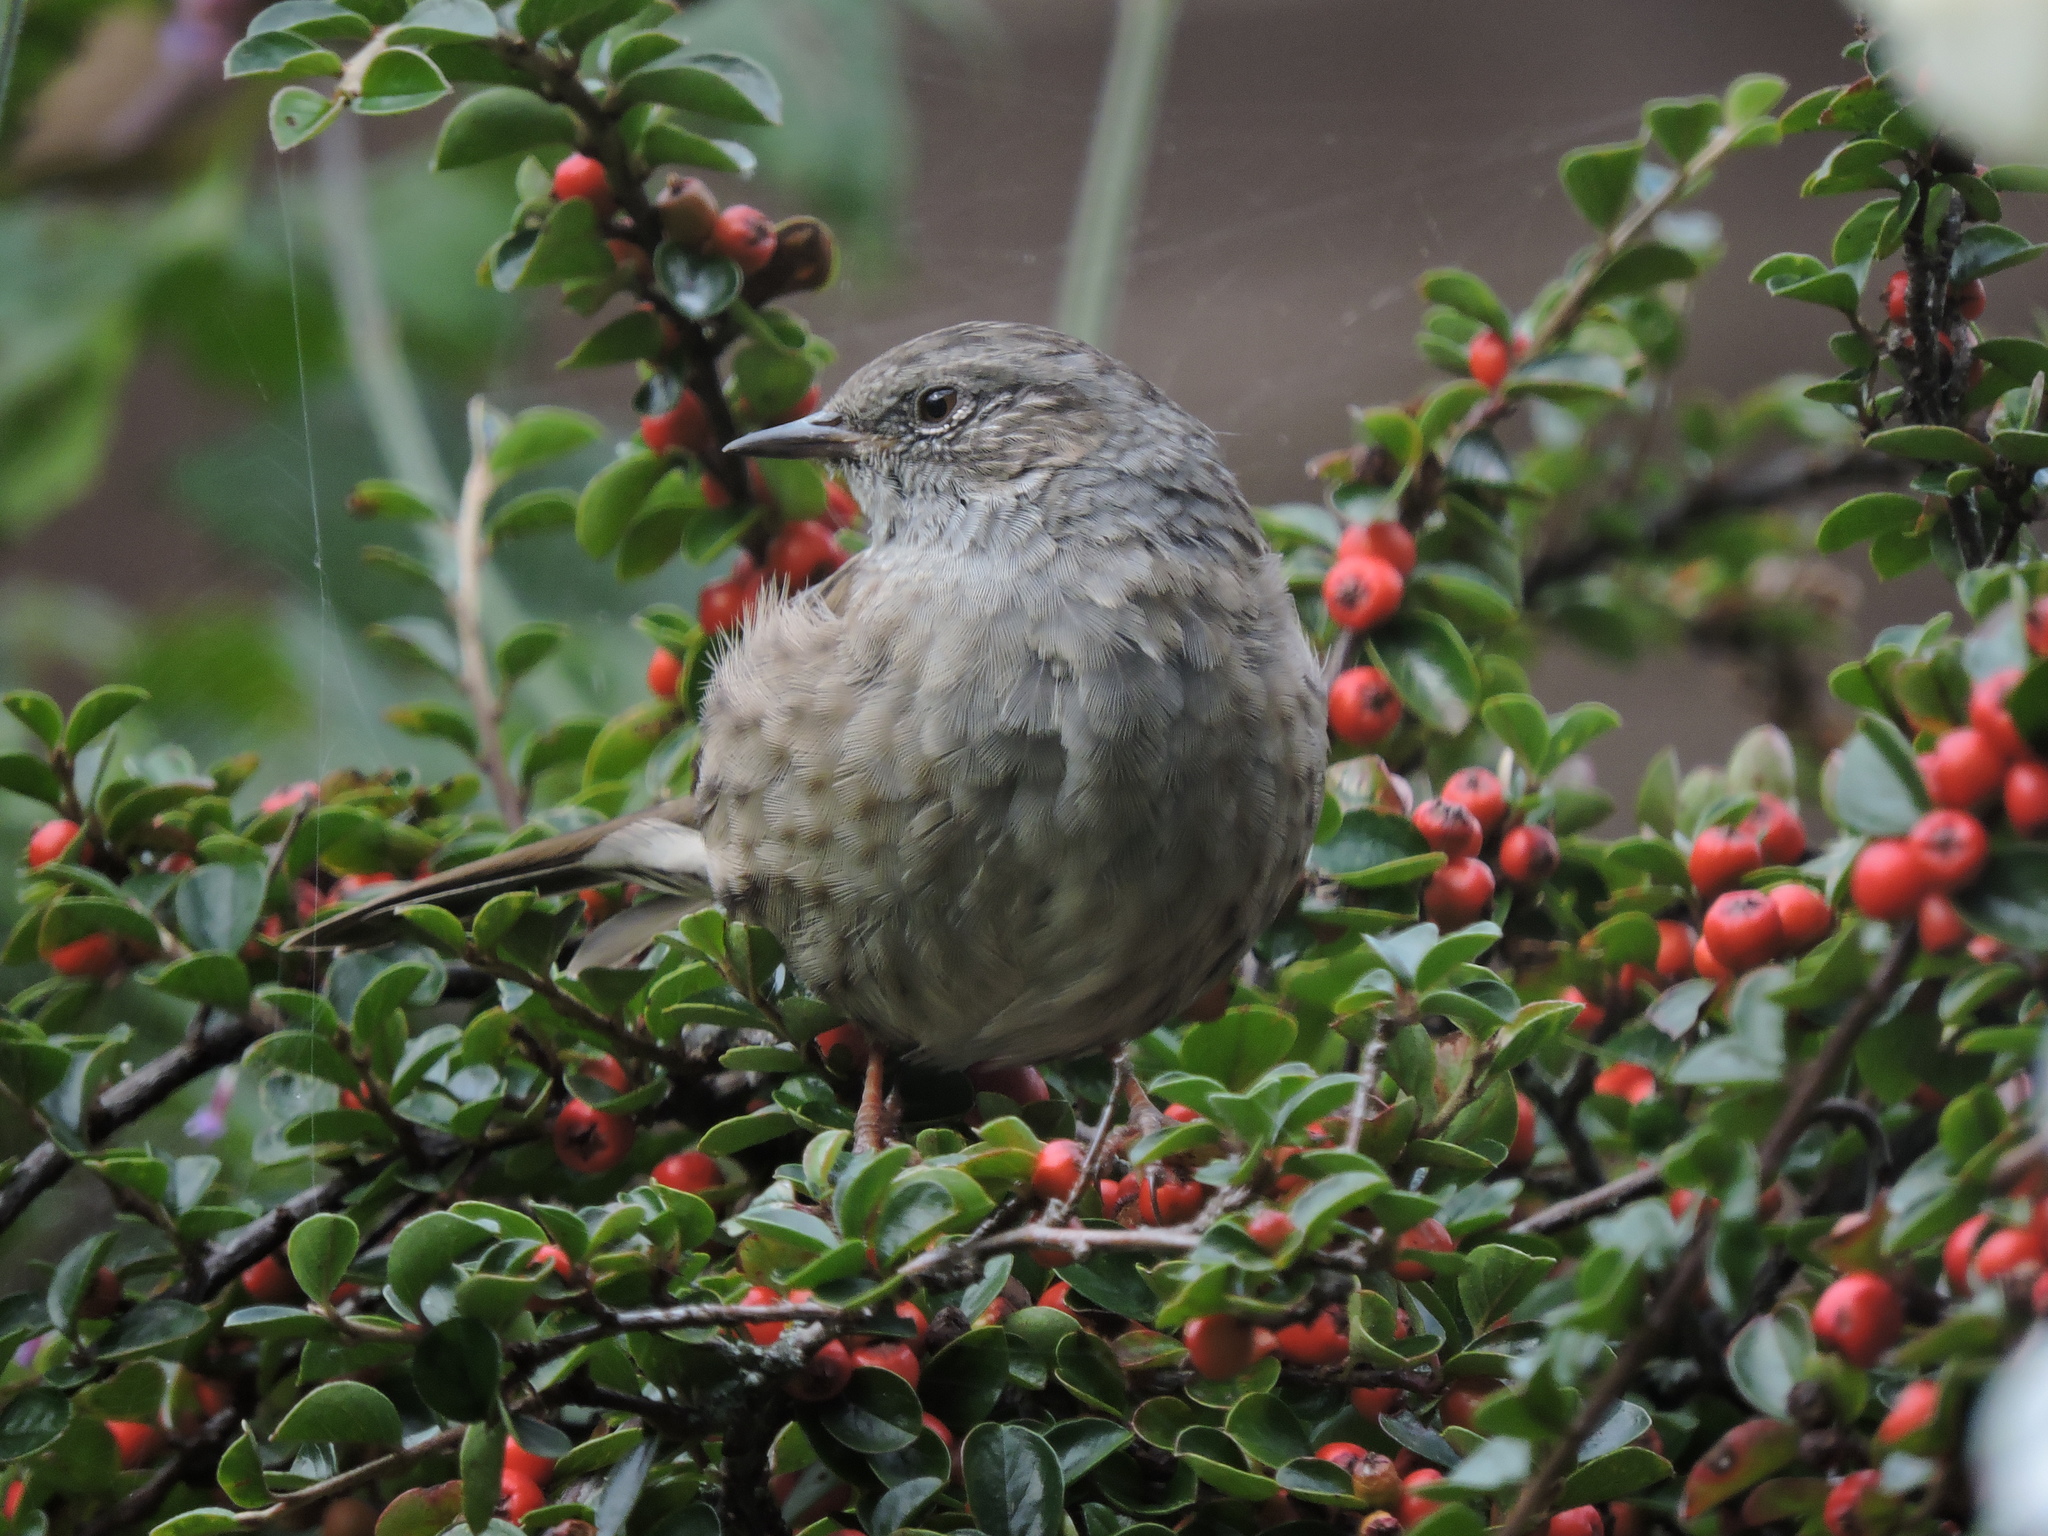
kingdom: Animalia
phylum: Chordata
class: Aves
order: Passeriformes
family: Prunellidae
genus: Prunella
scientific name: Prunella modularis
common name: Dunnock
